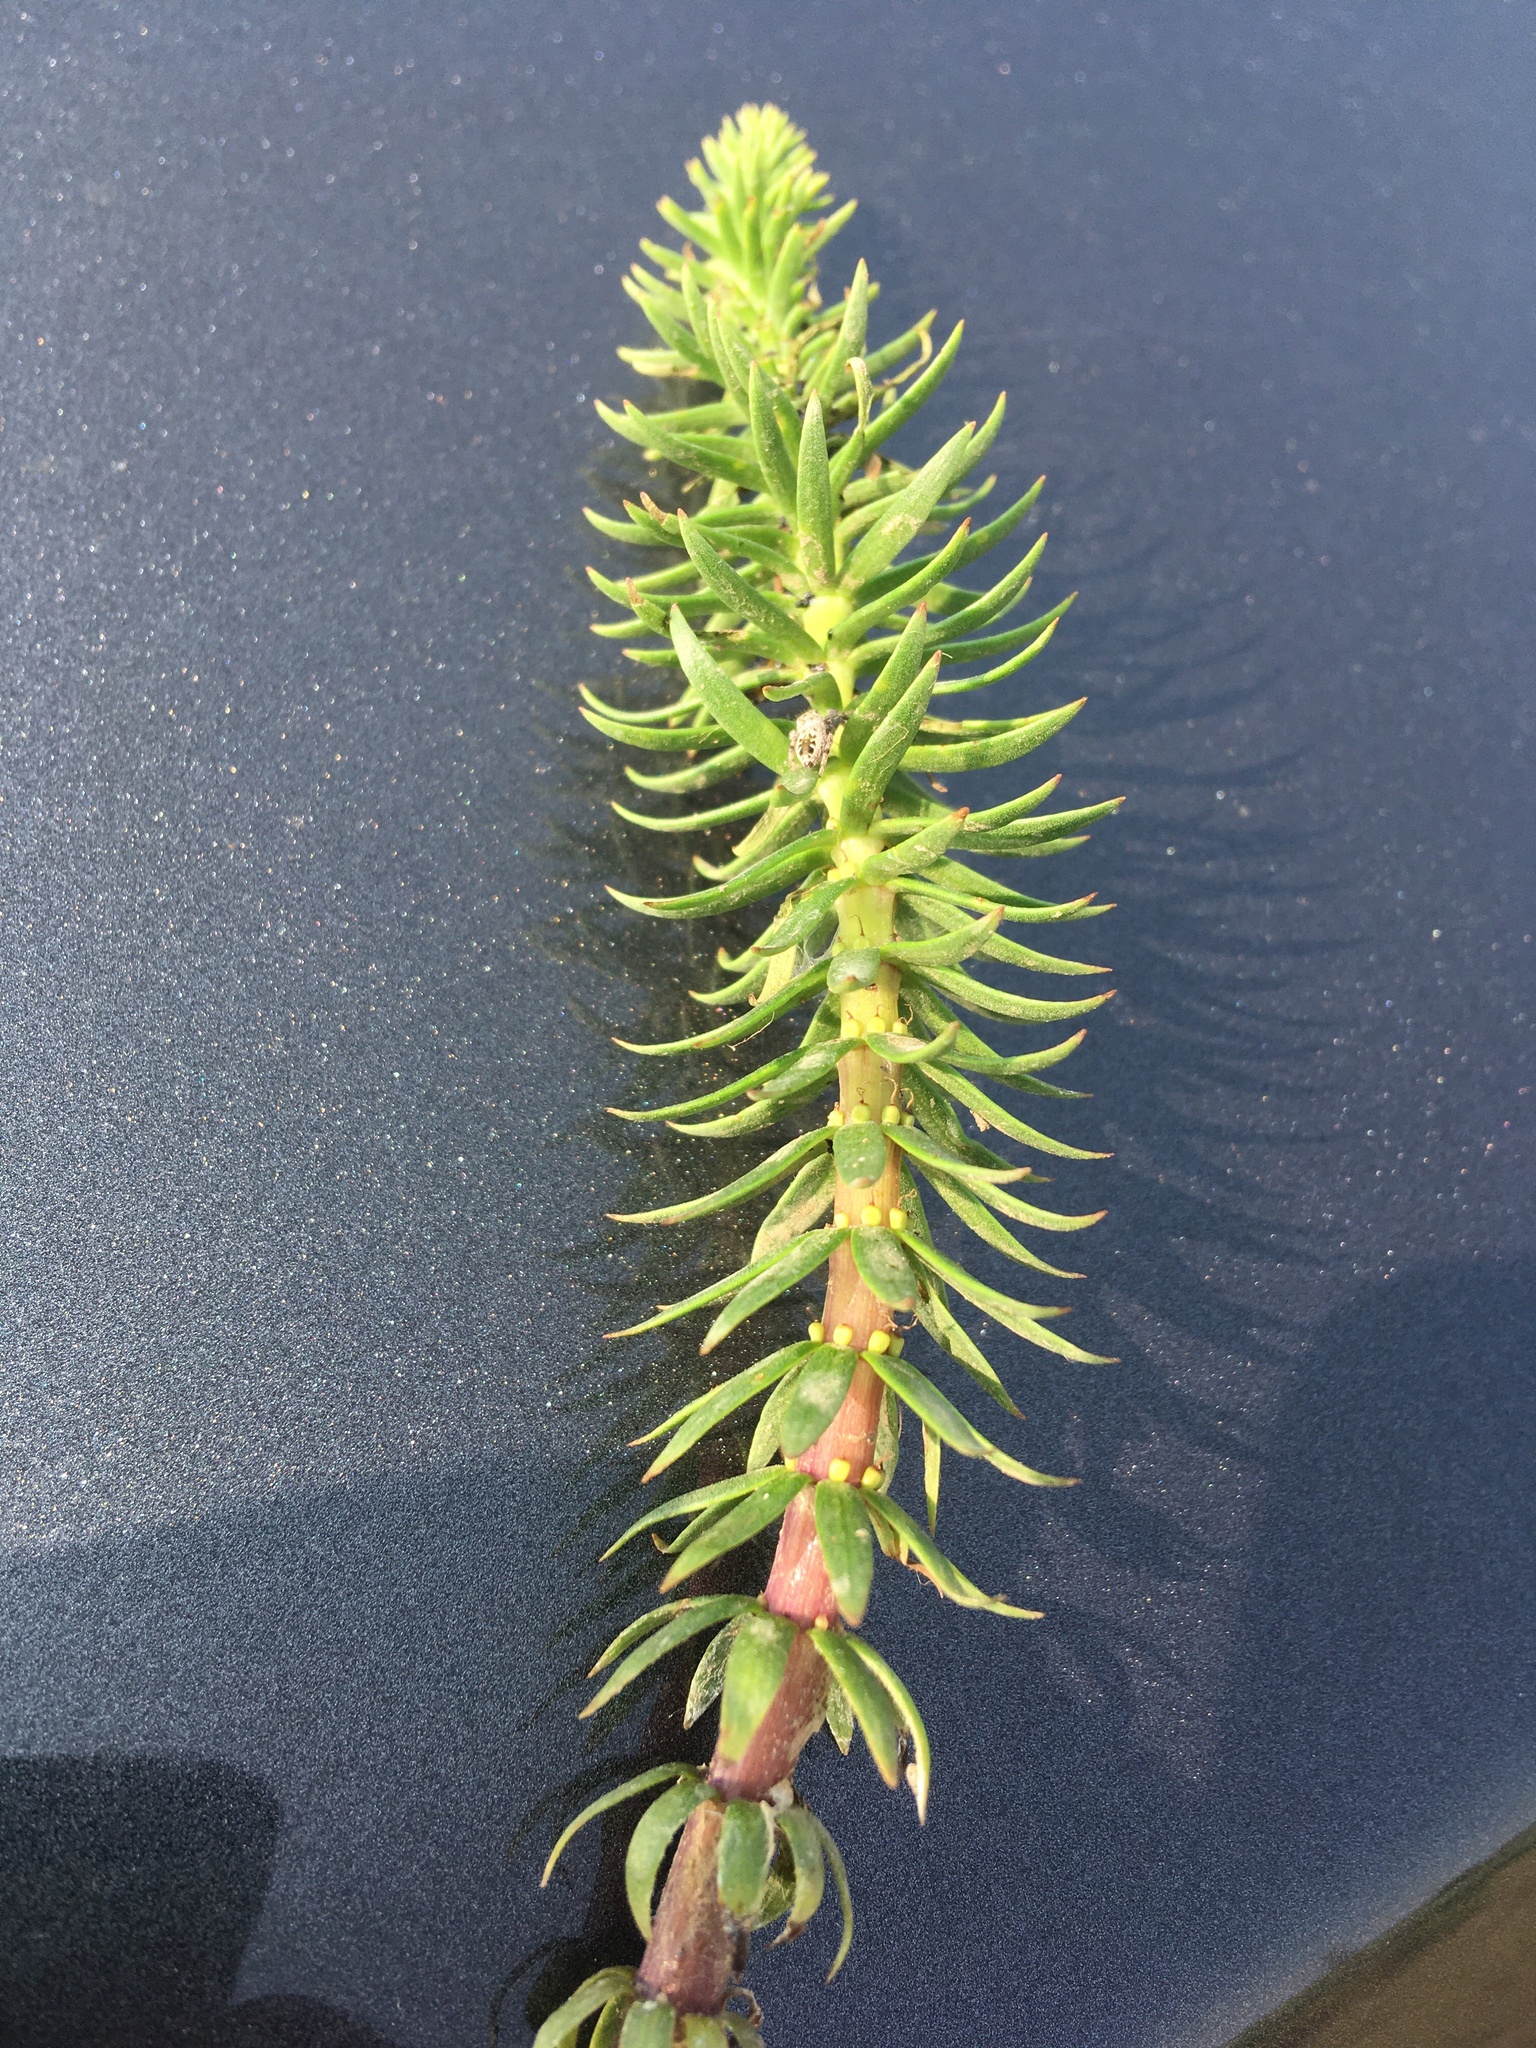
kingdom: Plantae
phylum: Tracheophyta
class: Magnoliopsida
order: Lamiales
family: Plantaginaceae
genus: Hippuris
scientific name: Hippuris vulgaris
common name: Mare's-tail
